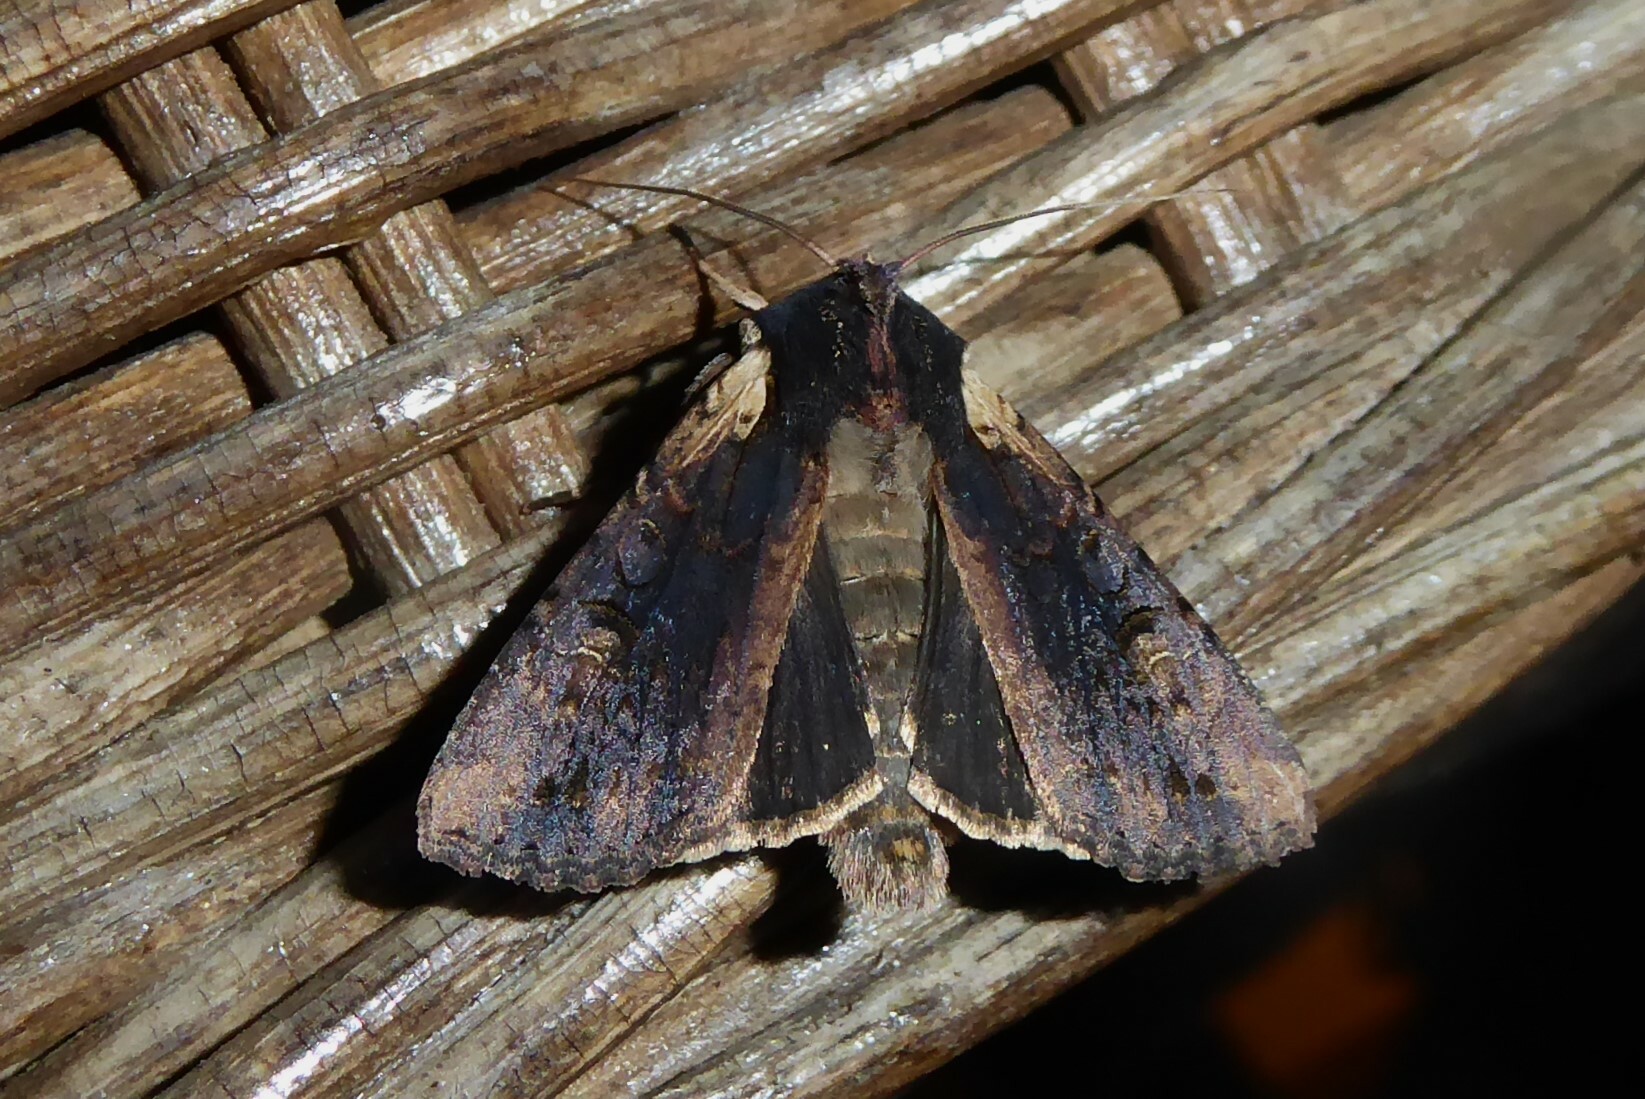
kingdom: Animalia
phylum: Arthropoda
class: Insecta
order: Lepidoptera
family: Noctuidae
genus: Ichneutica
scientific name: Ichneutica omoplaca
